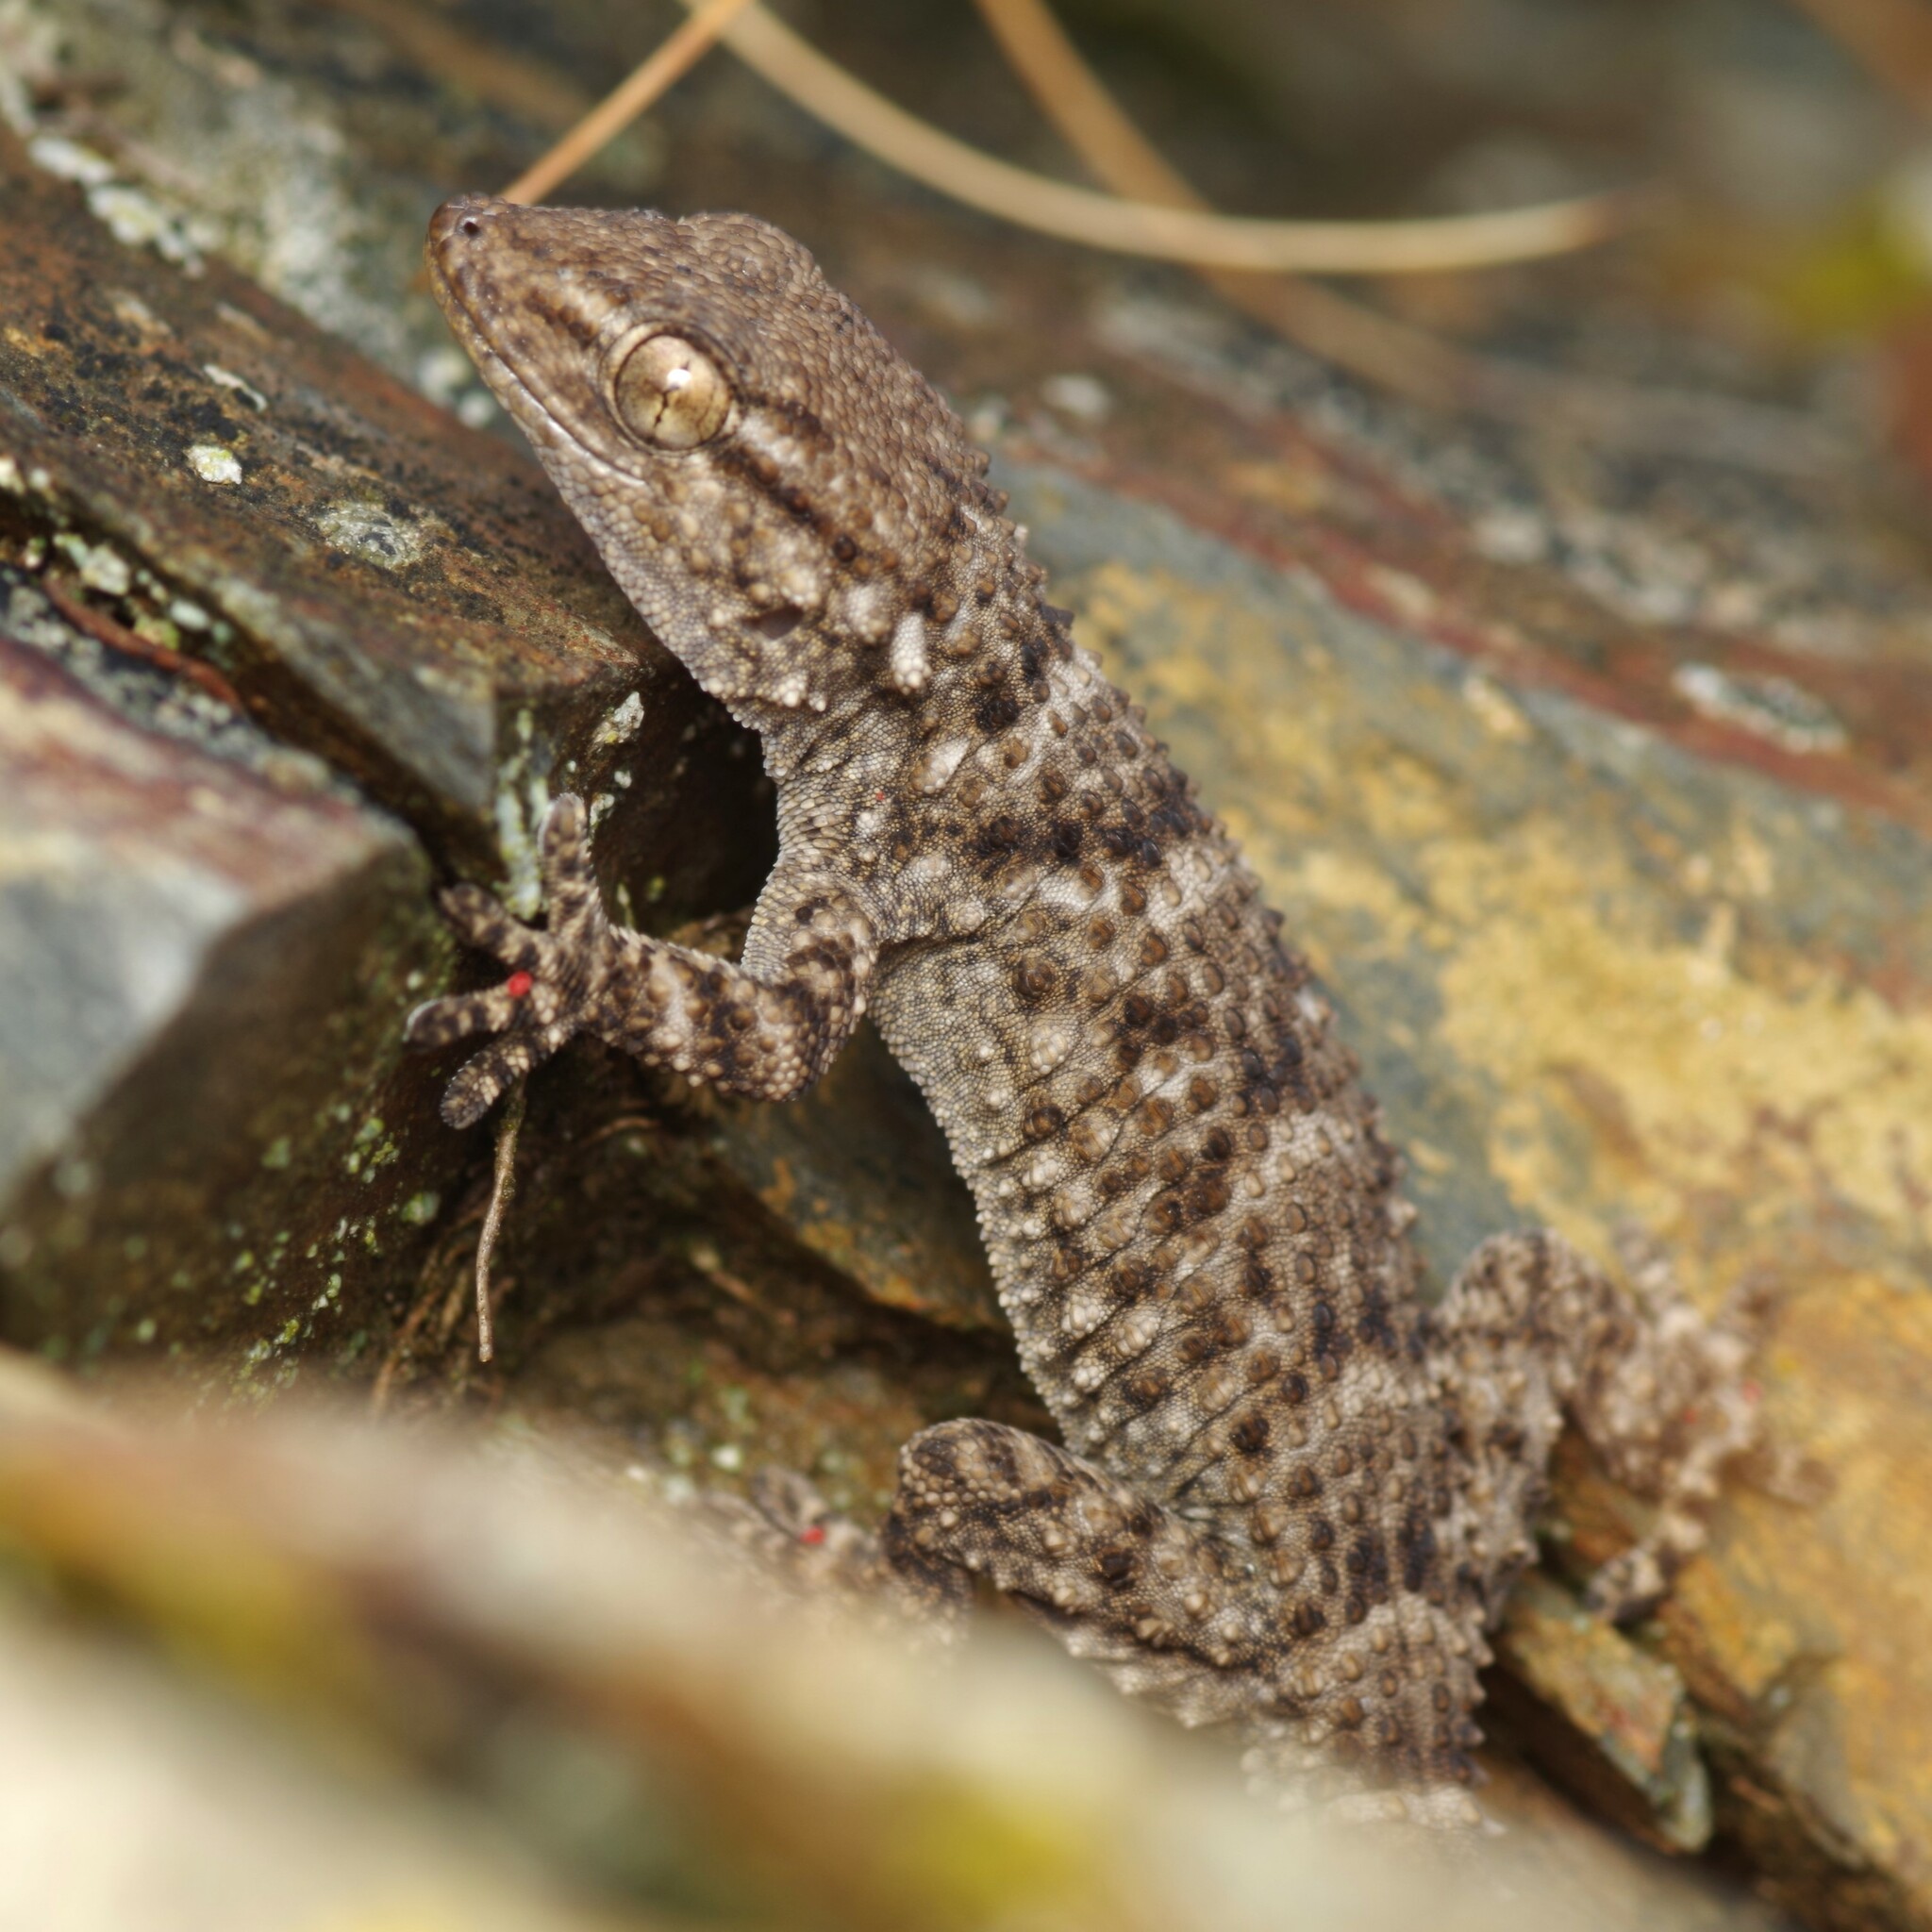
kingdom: Animalia
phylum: Chordata
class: Squamata
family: Phyllodactylidae
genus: Tarentola
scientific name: Tarentola mauritanica
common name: Moorish gecko
